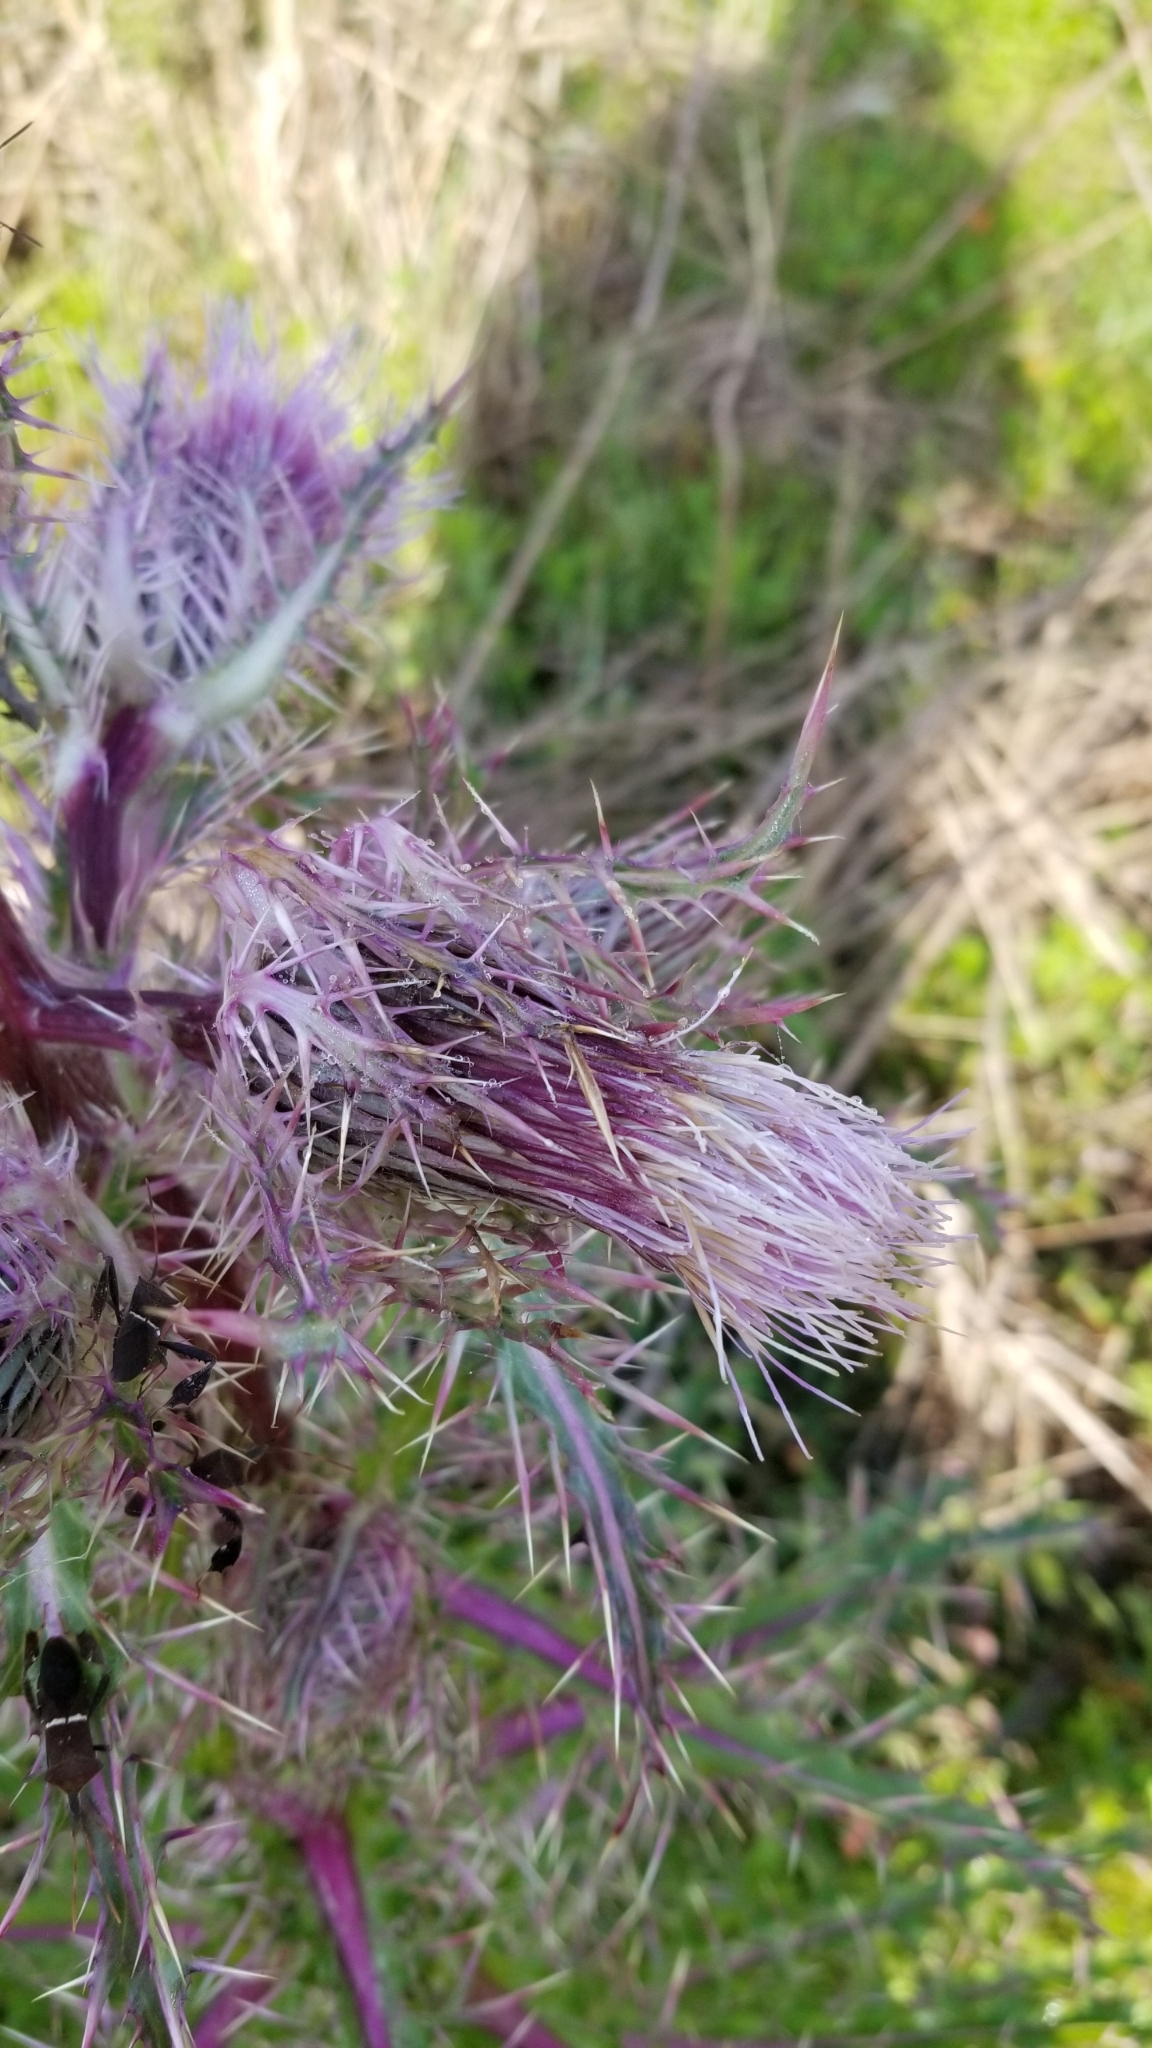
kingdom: Plantae
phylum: Tracheophyta
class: Magnoliopsida
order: Asterales
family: Asteraceae
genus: Cirsium
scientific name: Cirsium horridulum
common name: Bristly thistle
